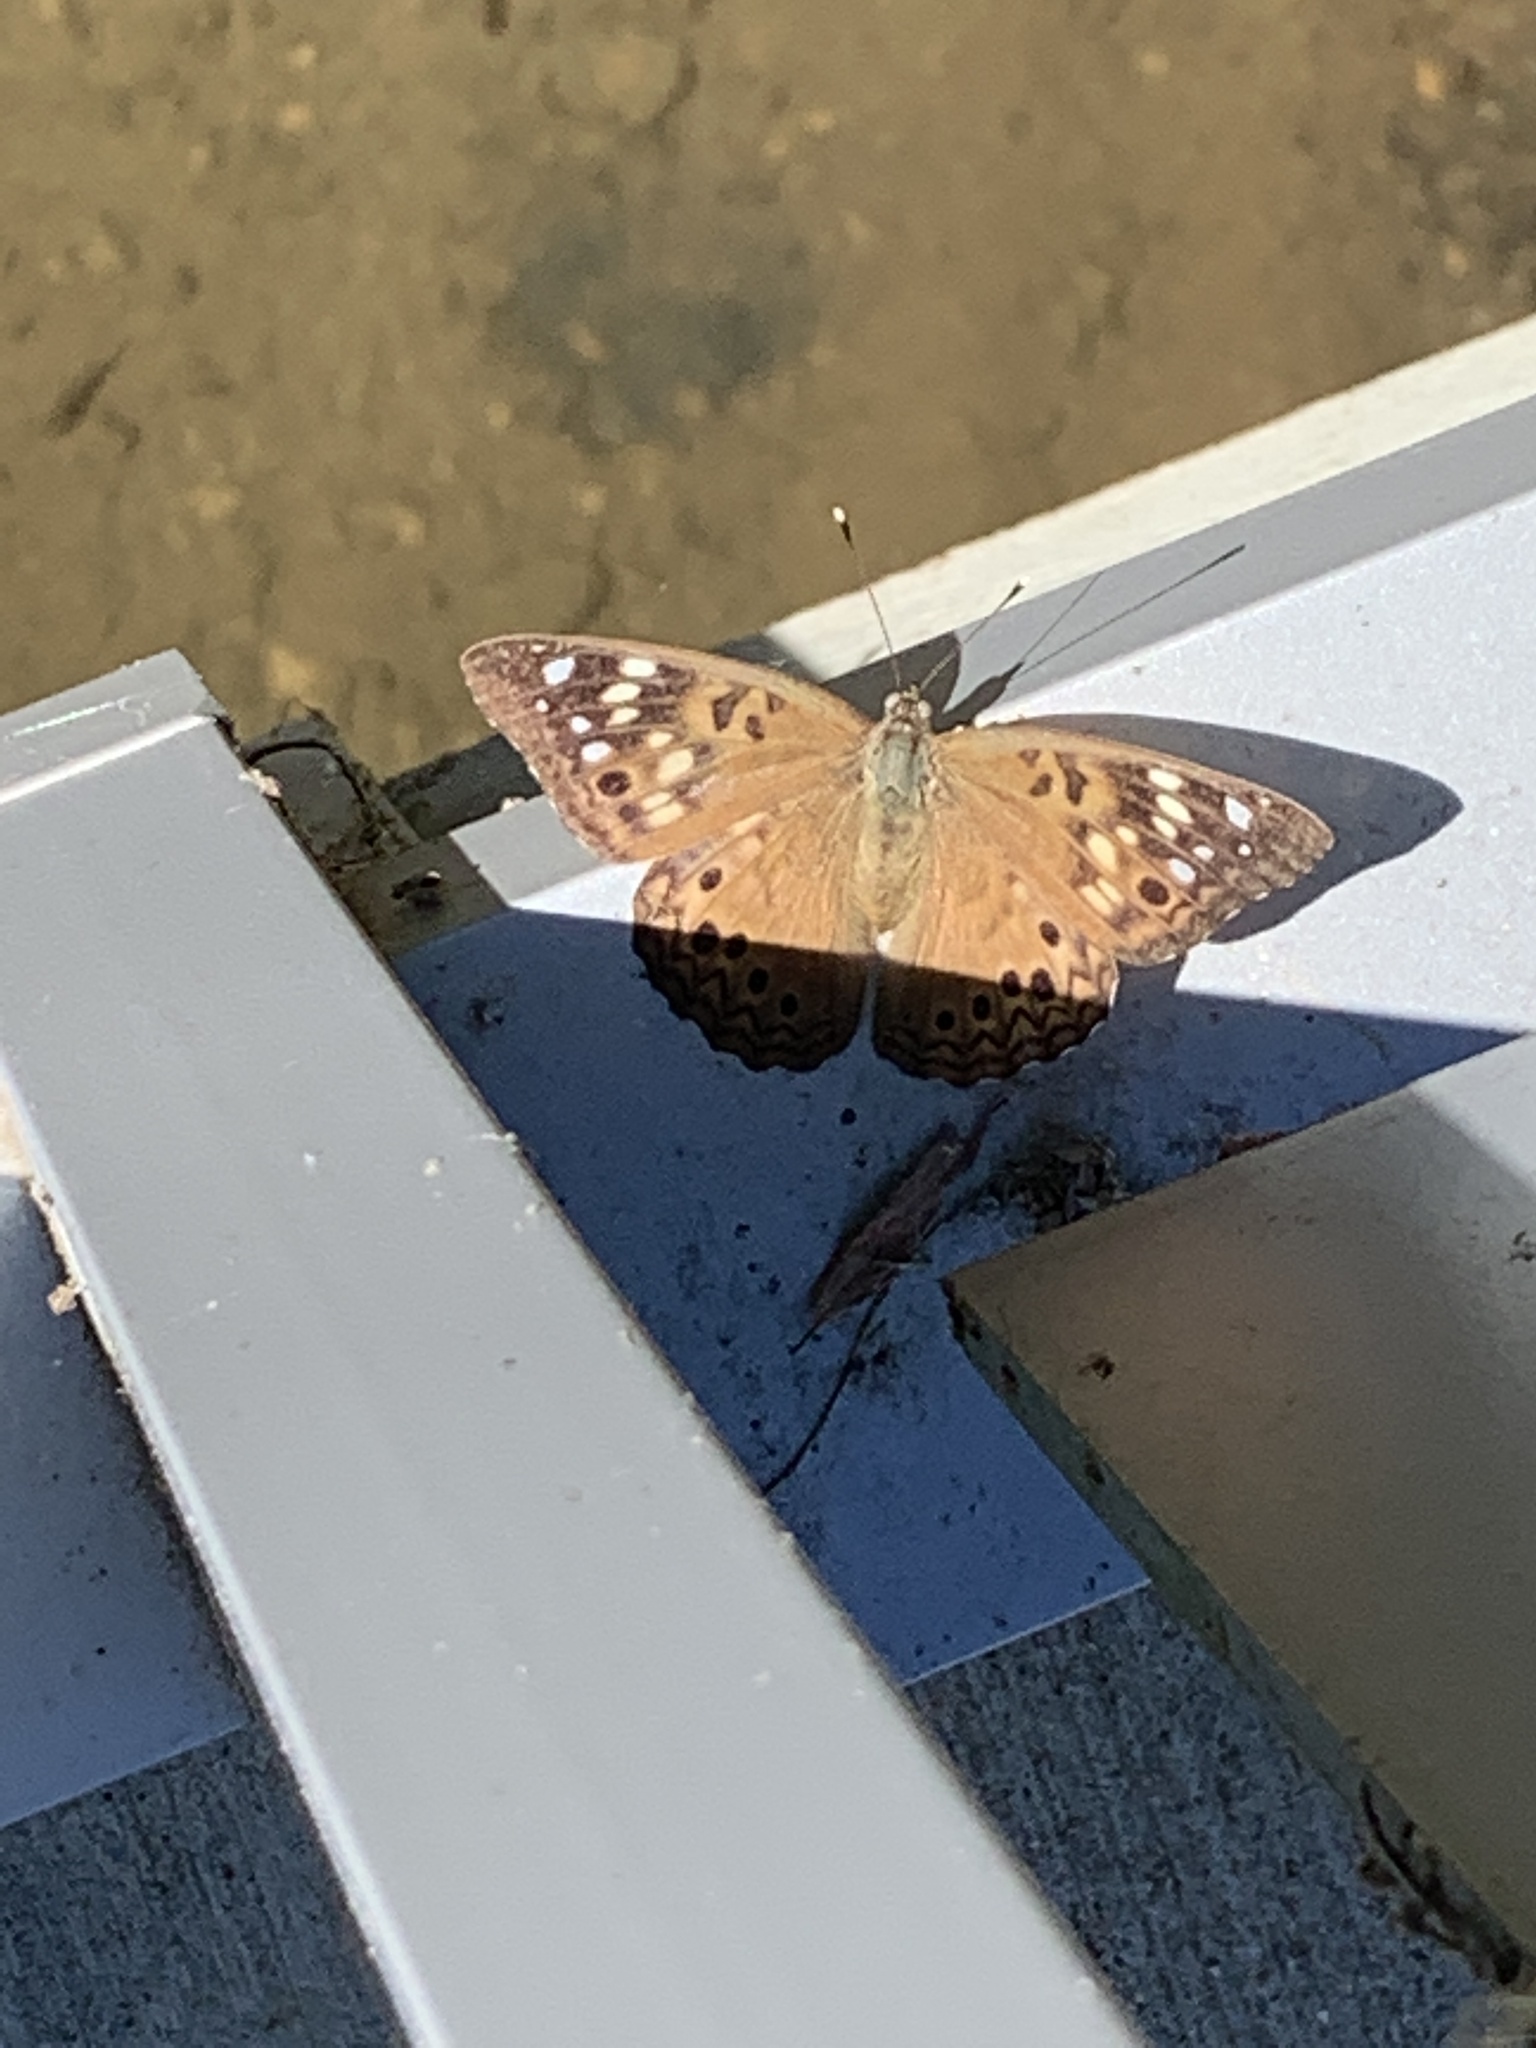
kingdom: Animalia
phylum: Arthropoda
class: Insecta
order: Lepidoptera
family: Nymphalidae
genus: Asterocampa
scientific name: Asterocampa celtis
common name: Hackberry emperor
